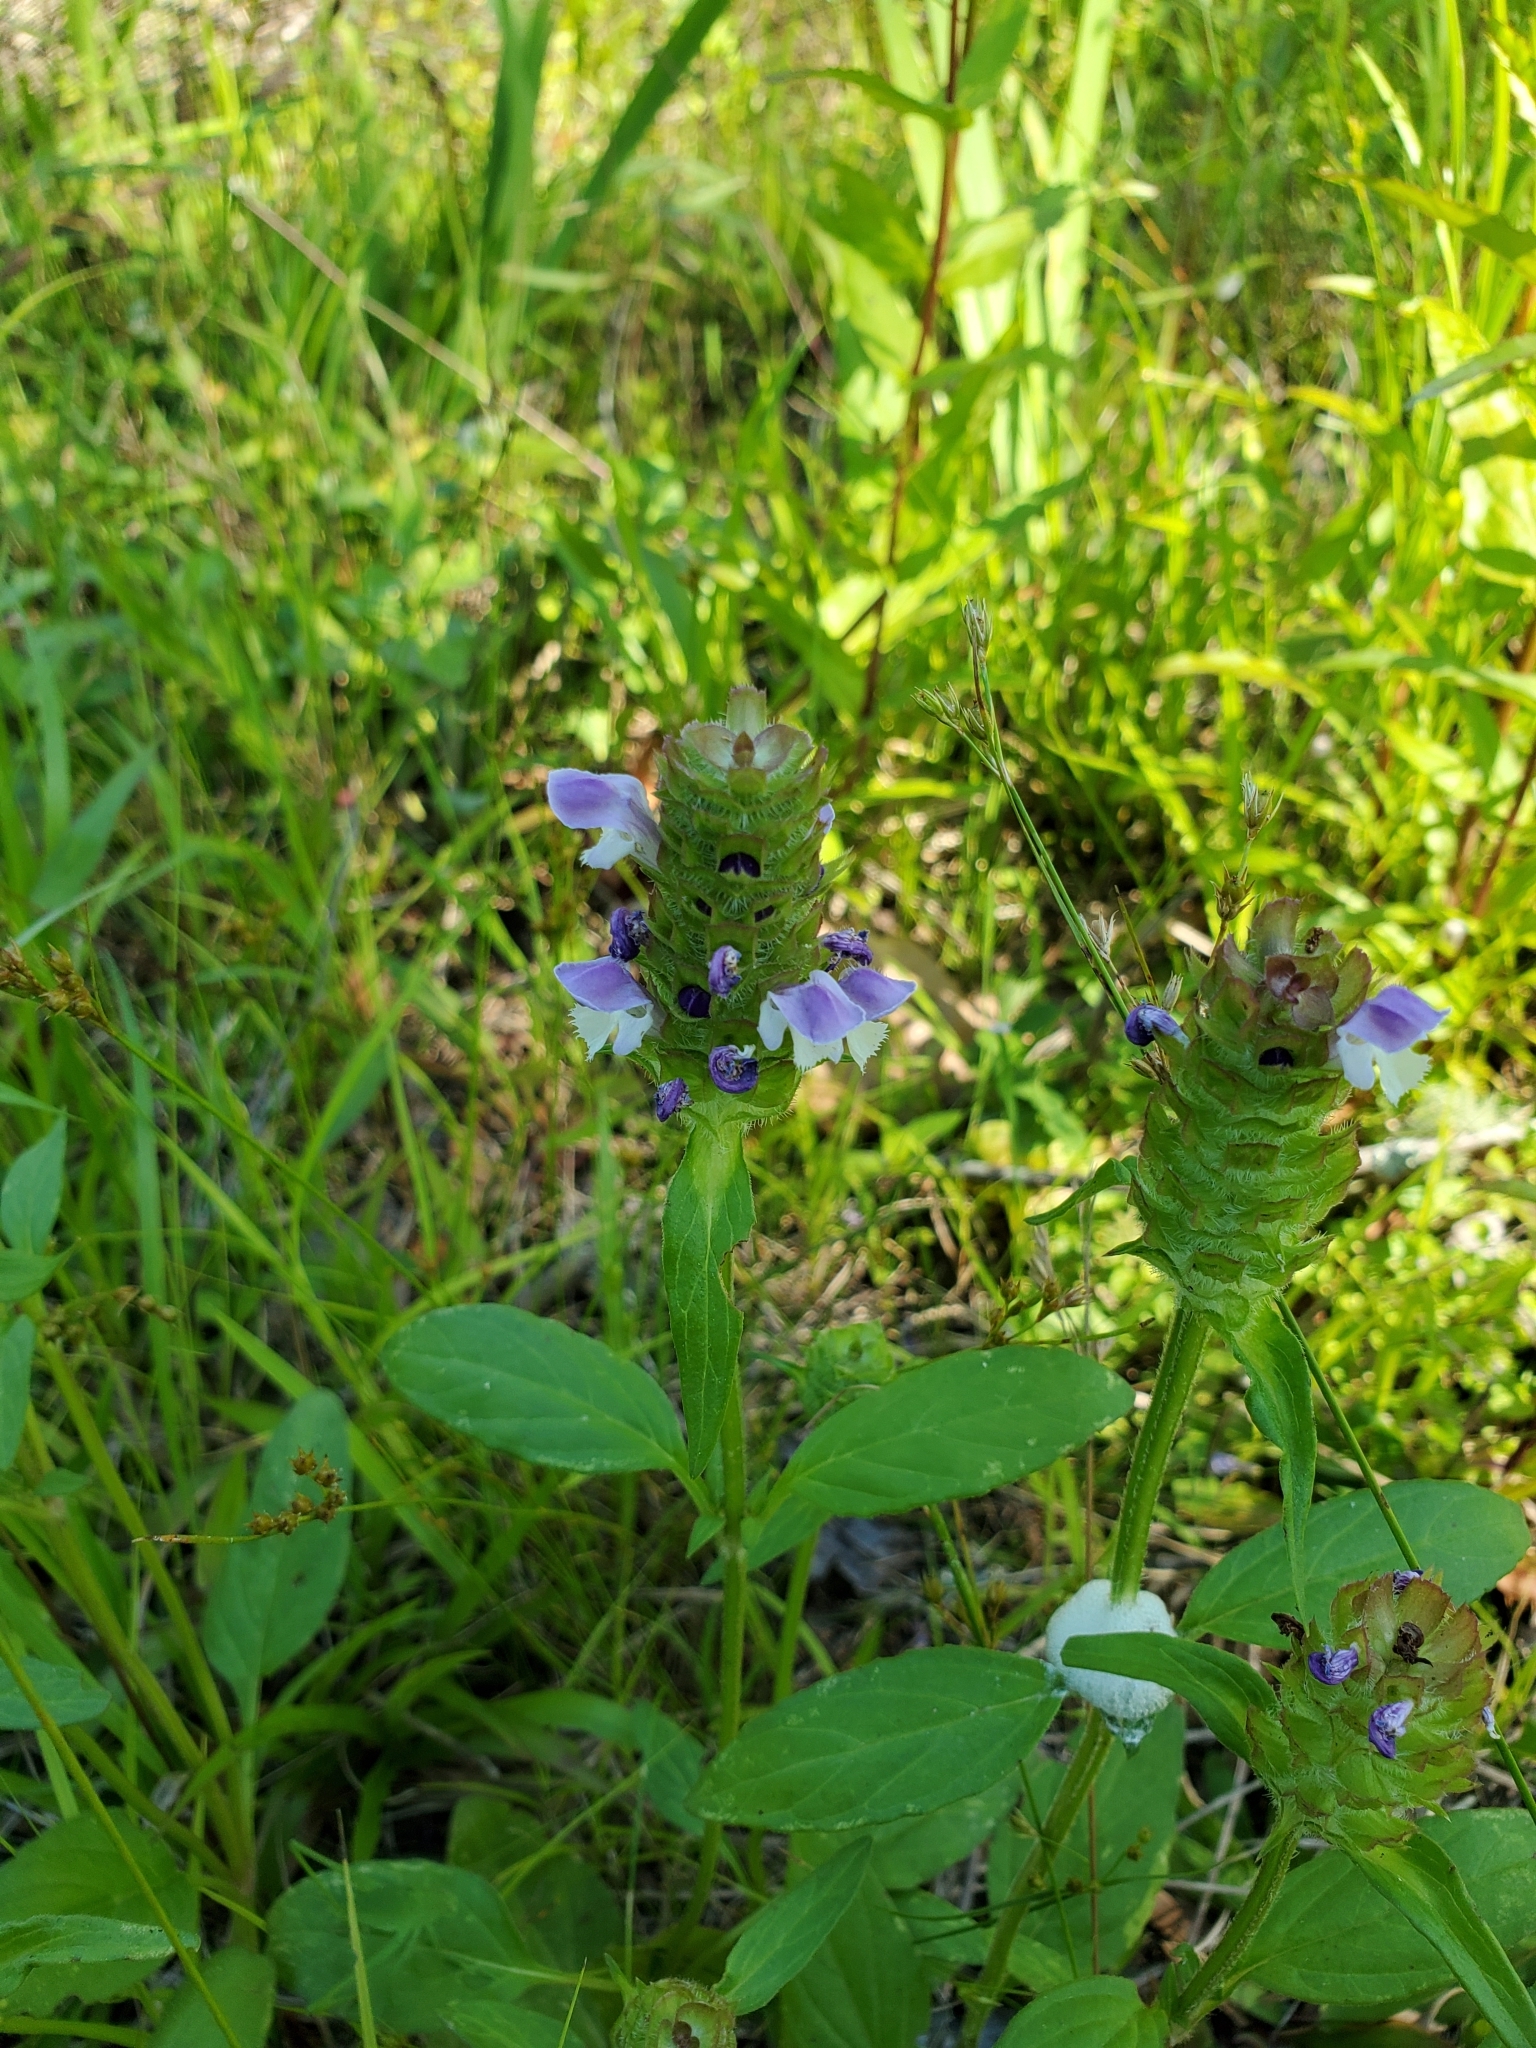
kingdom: Plantae
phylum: Tracheophyta
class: Magnoliopsida
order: Lamiales
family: Lamiaceae
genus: Prunella
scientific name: Prunella vulgaris
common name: Heal-all
